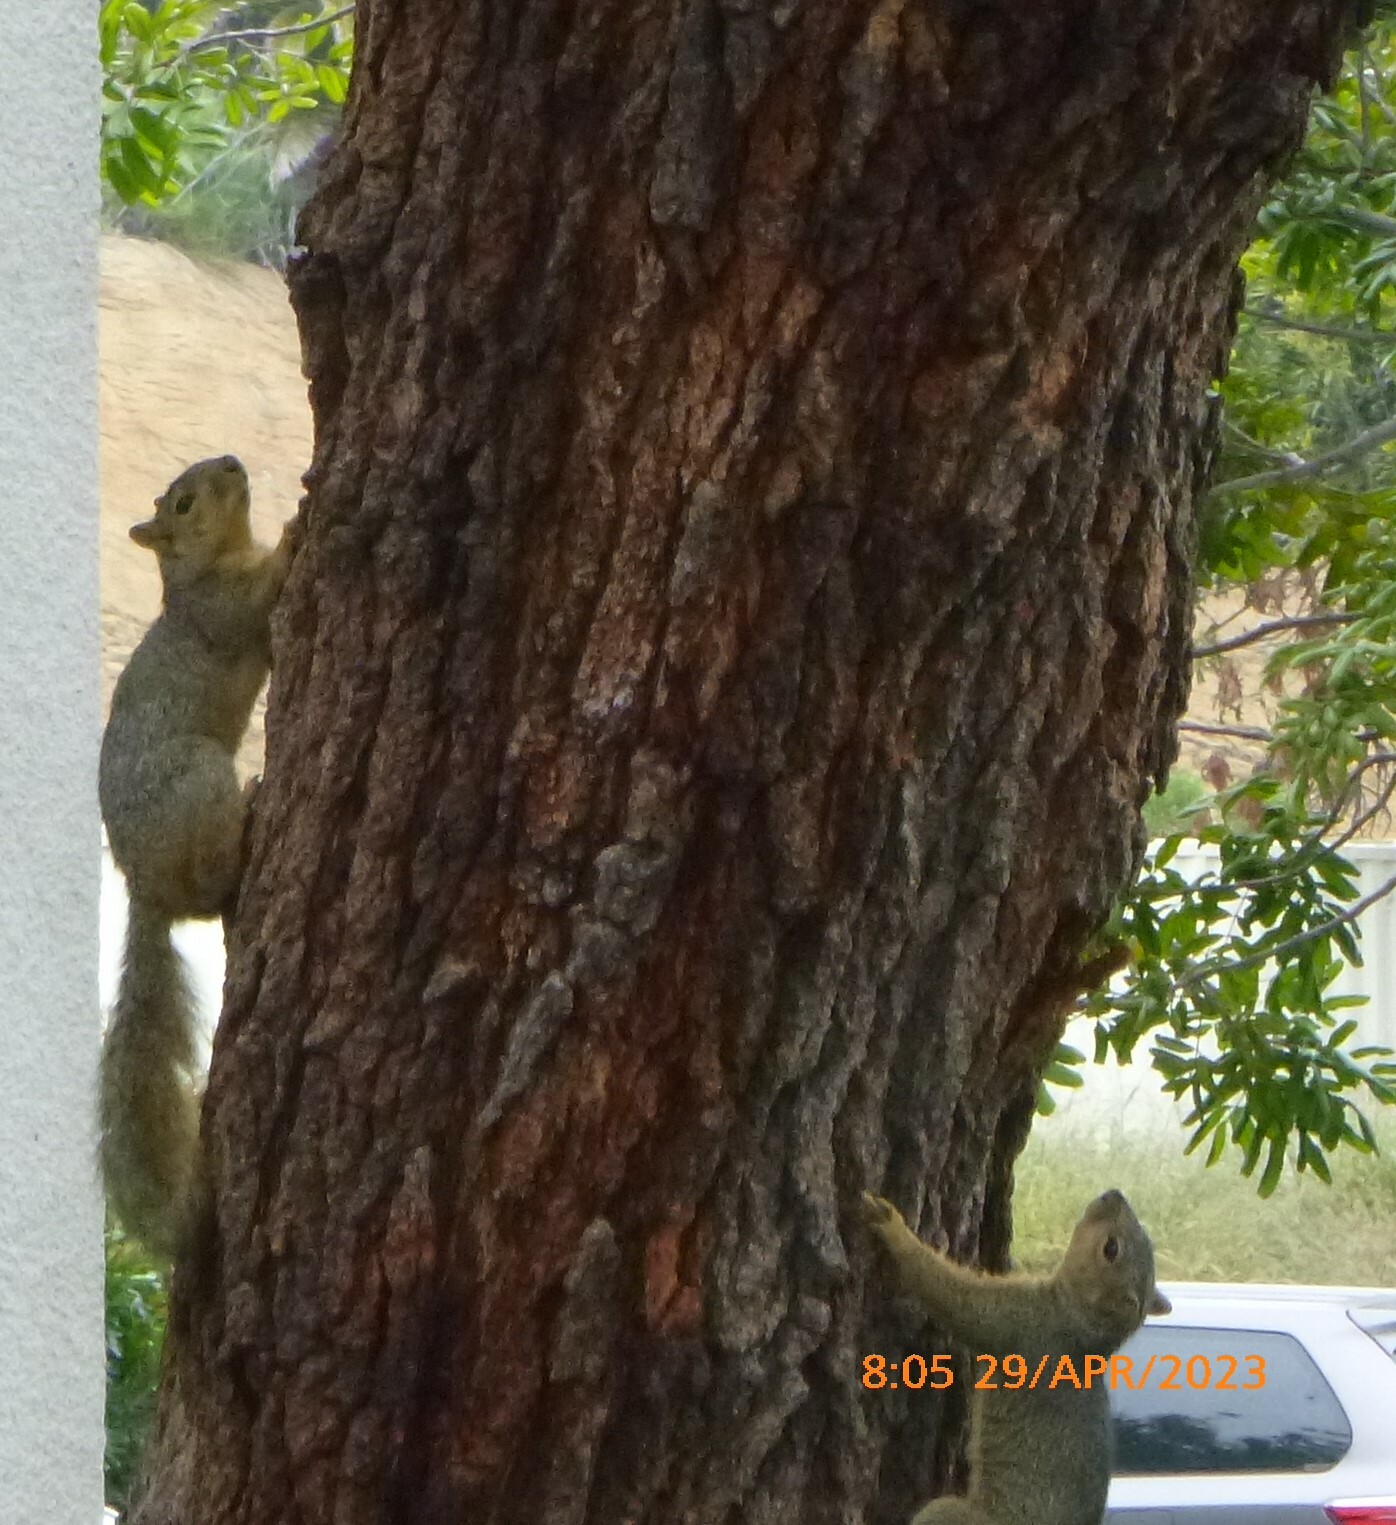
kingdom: Animalia
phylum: Chordata
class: Mammalia
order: Rodentia
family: Sciuridae
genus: Sciurus
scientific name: Sciurus niger
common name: Fox squirrel
